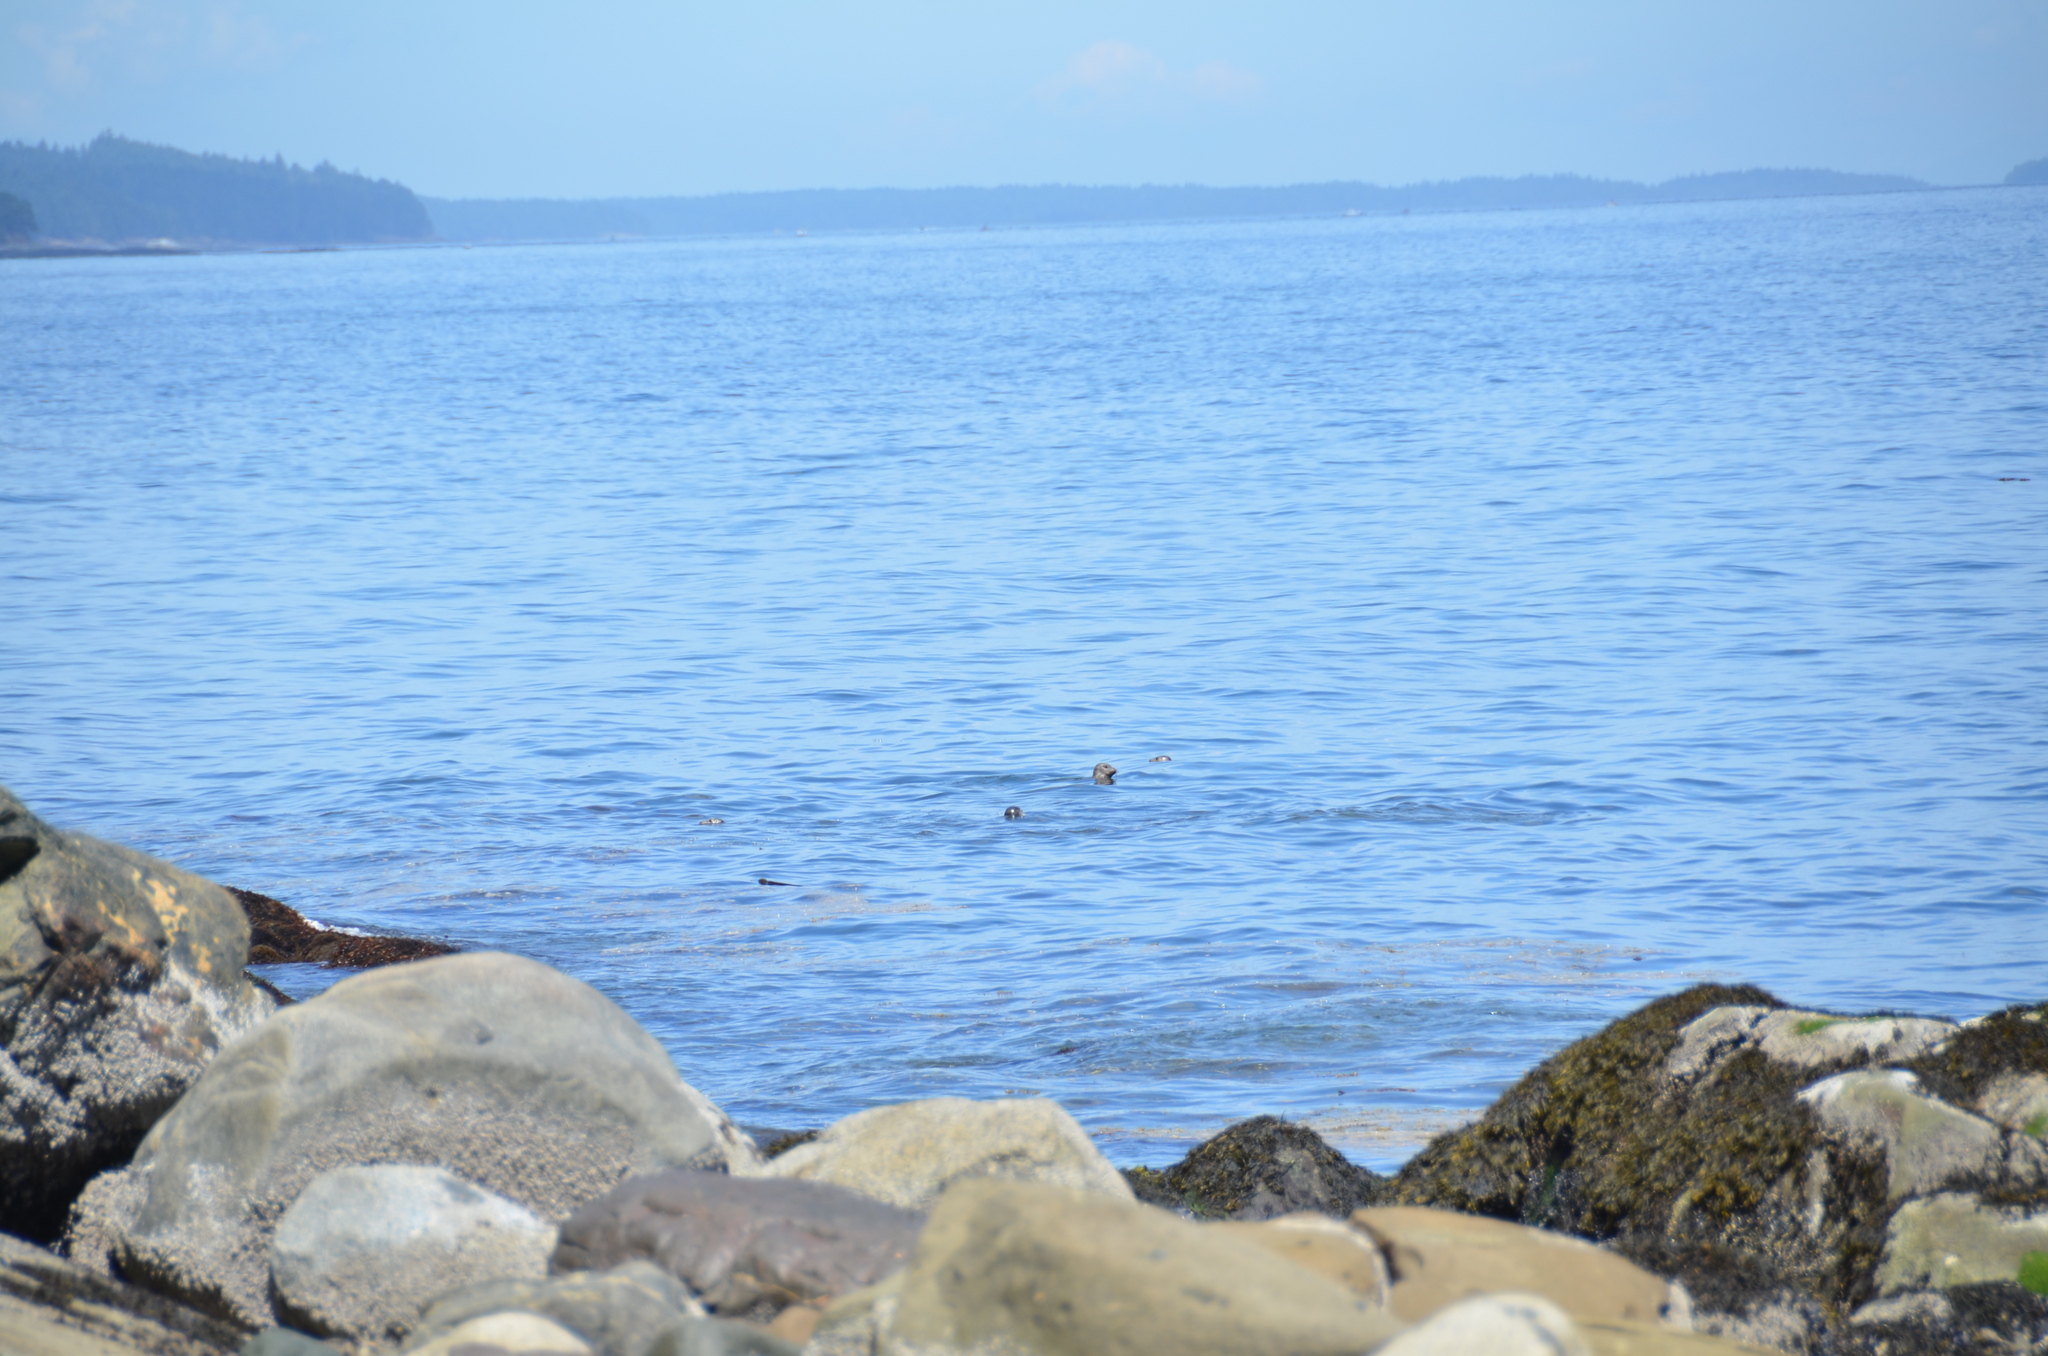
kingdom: Animalia
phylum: Chordata
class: Mammalia
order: Carnivora
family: Phocidae
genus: Phoca
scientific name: Phoca vitulina
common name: Harbor seal
